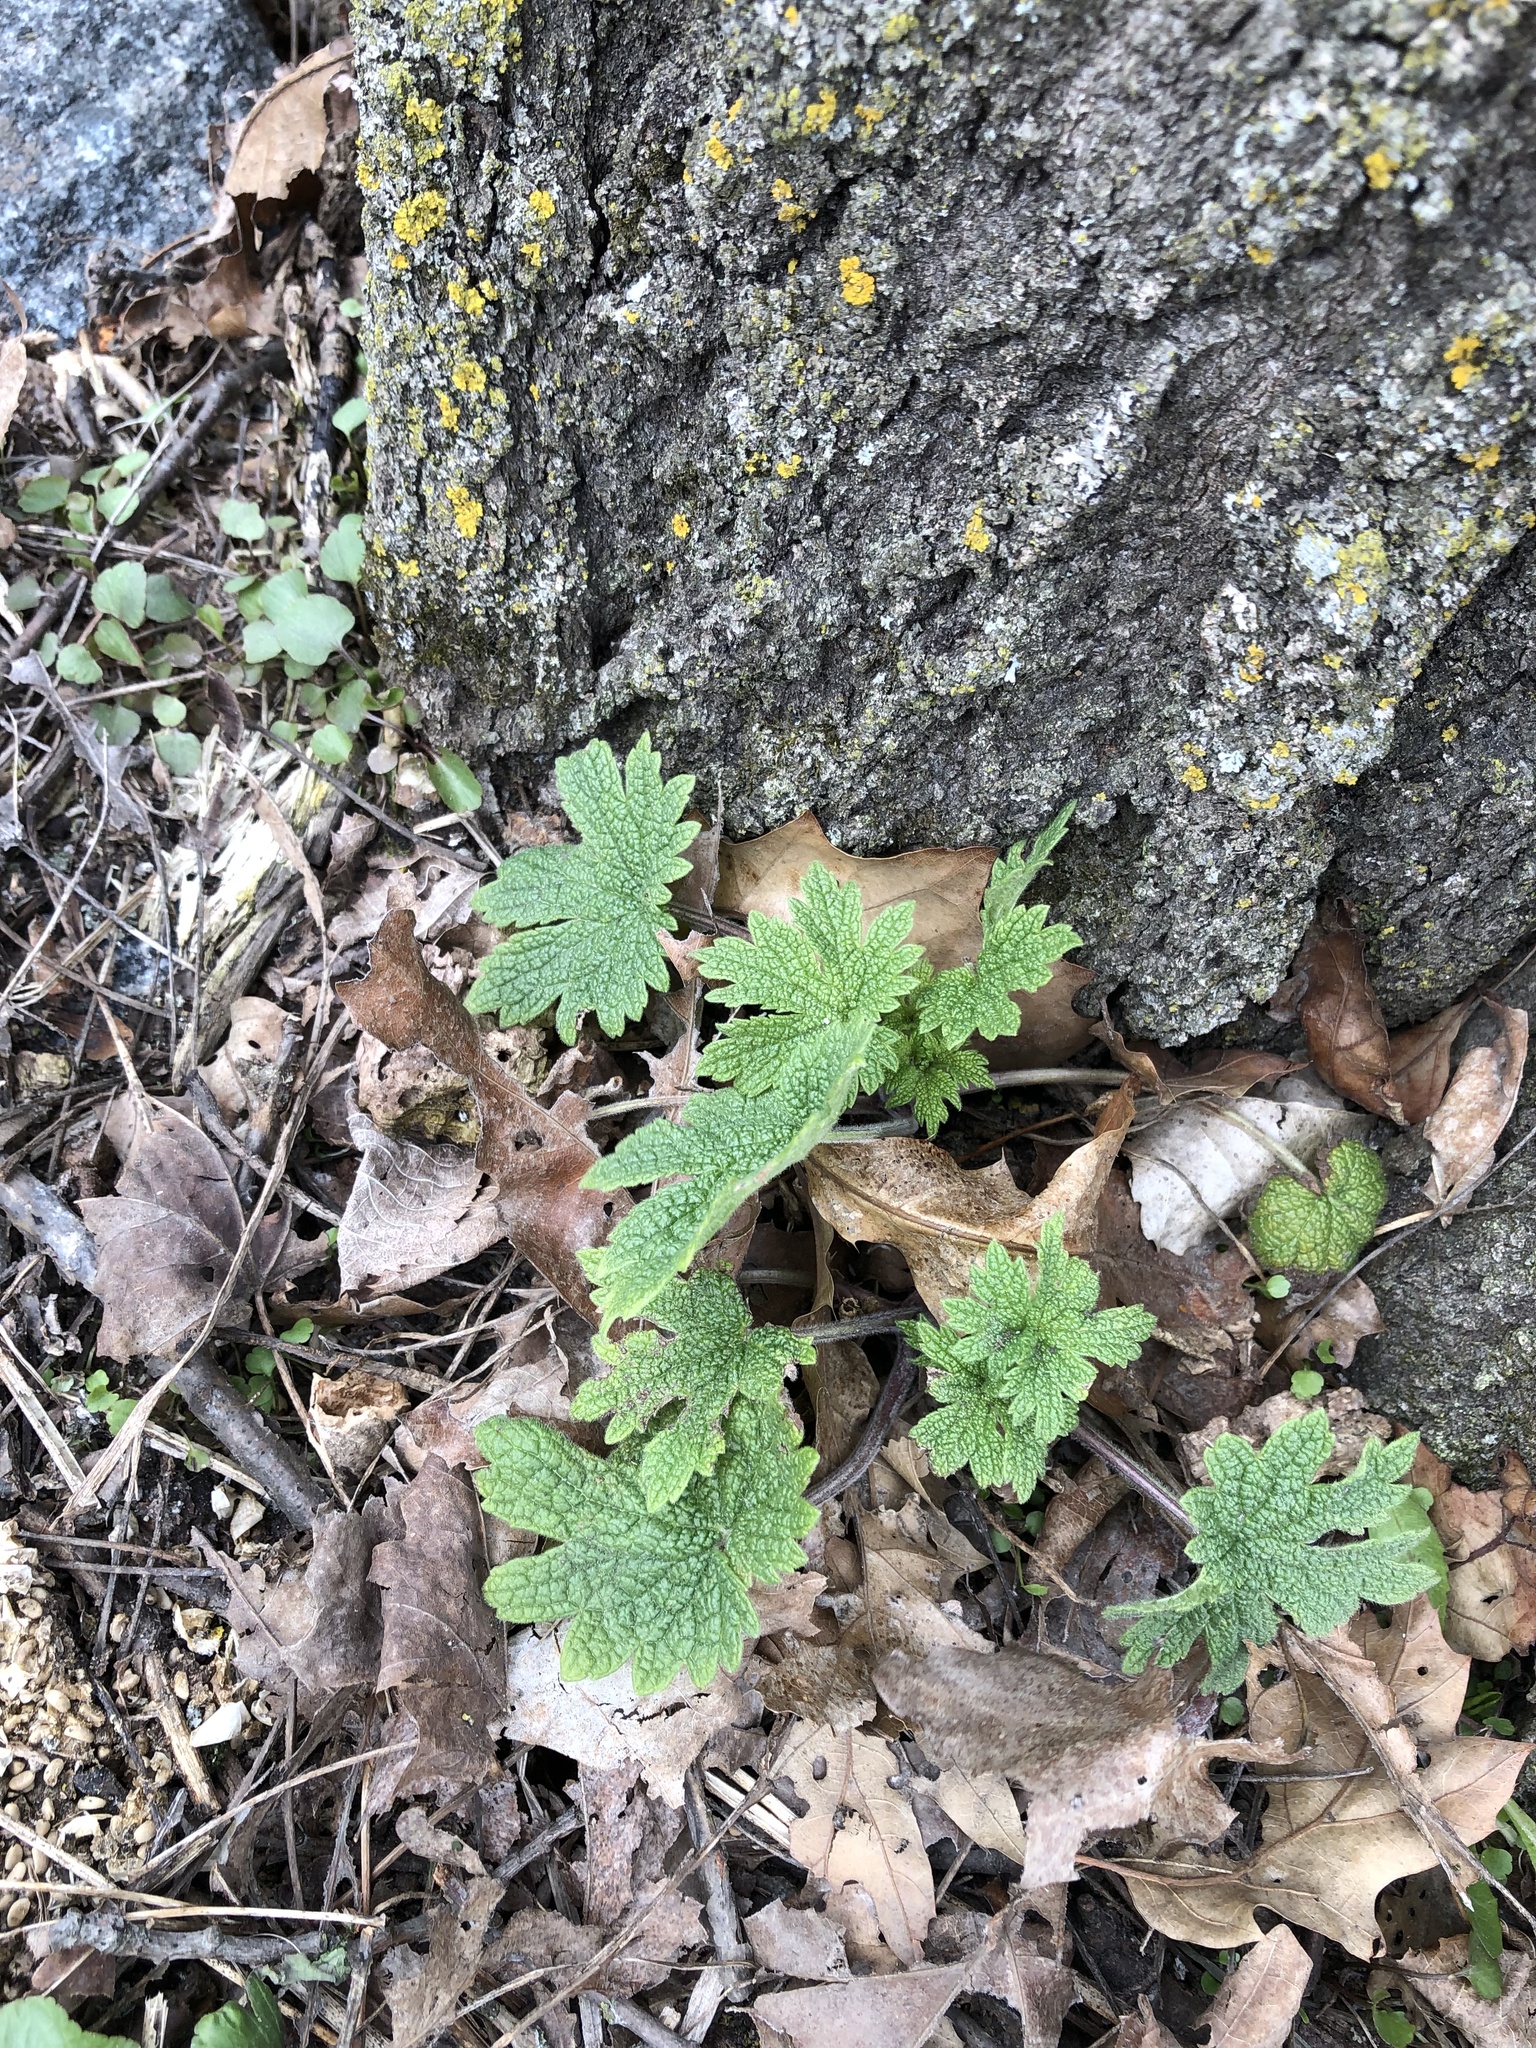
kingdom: Plantae
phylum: Tracheophyta
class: Magnoliopsida
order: Lamiales
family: Lamiaceae
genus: Leonurus
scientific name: Leonurus cardiaca
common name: Motherwort
